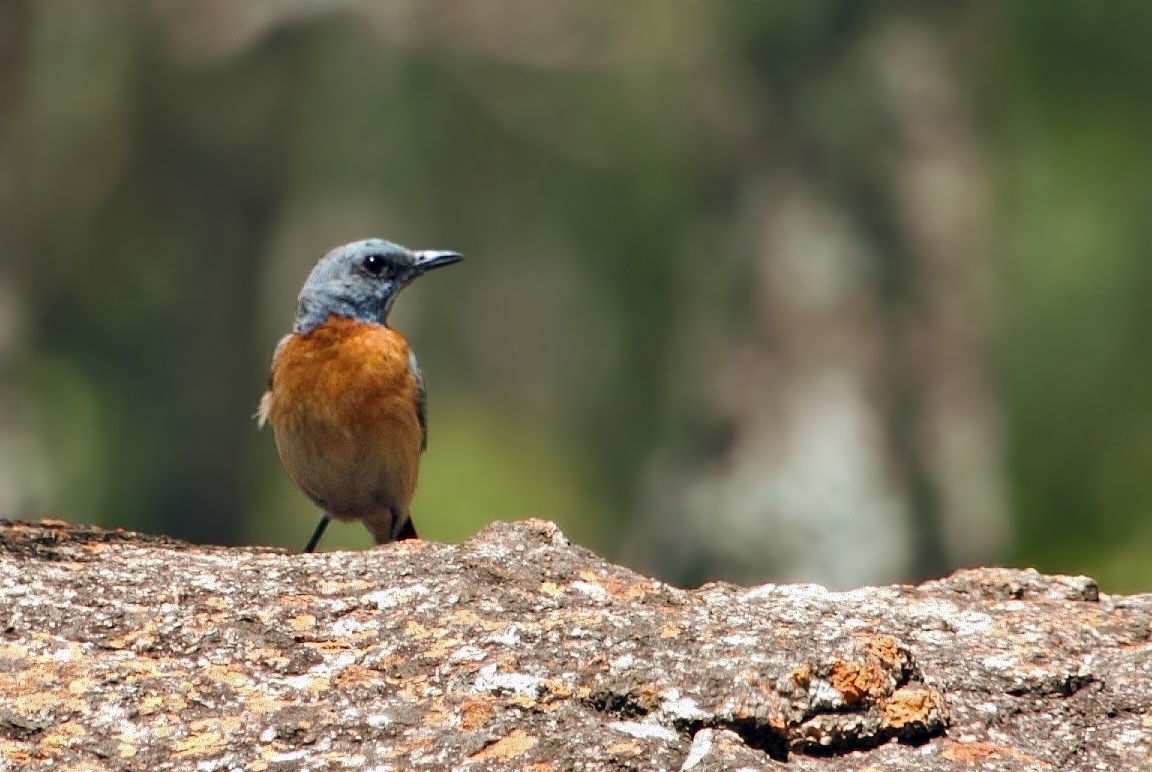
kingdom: Animalia
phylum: Chordata
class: Aves
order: Passeriformes
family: Muscicapidae
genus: Monticola
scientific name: Monticola angolensis
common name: Miombo rock thrush
